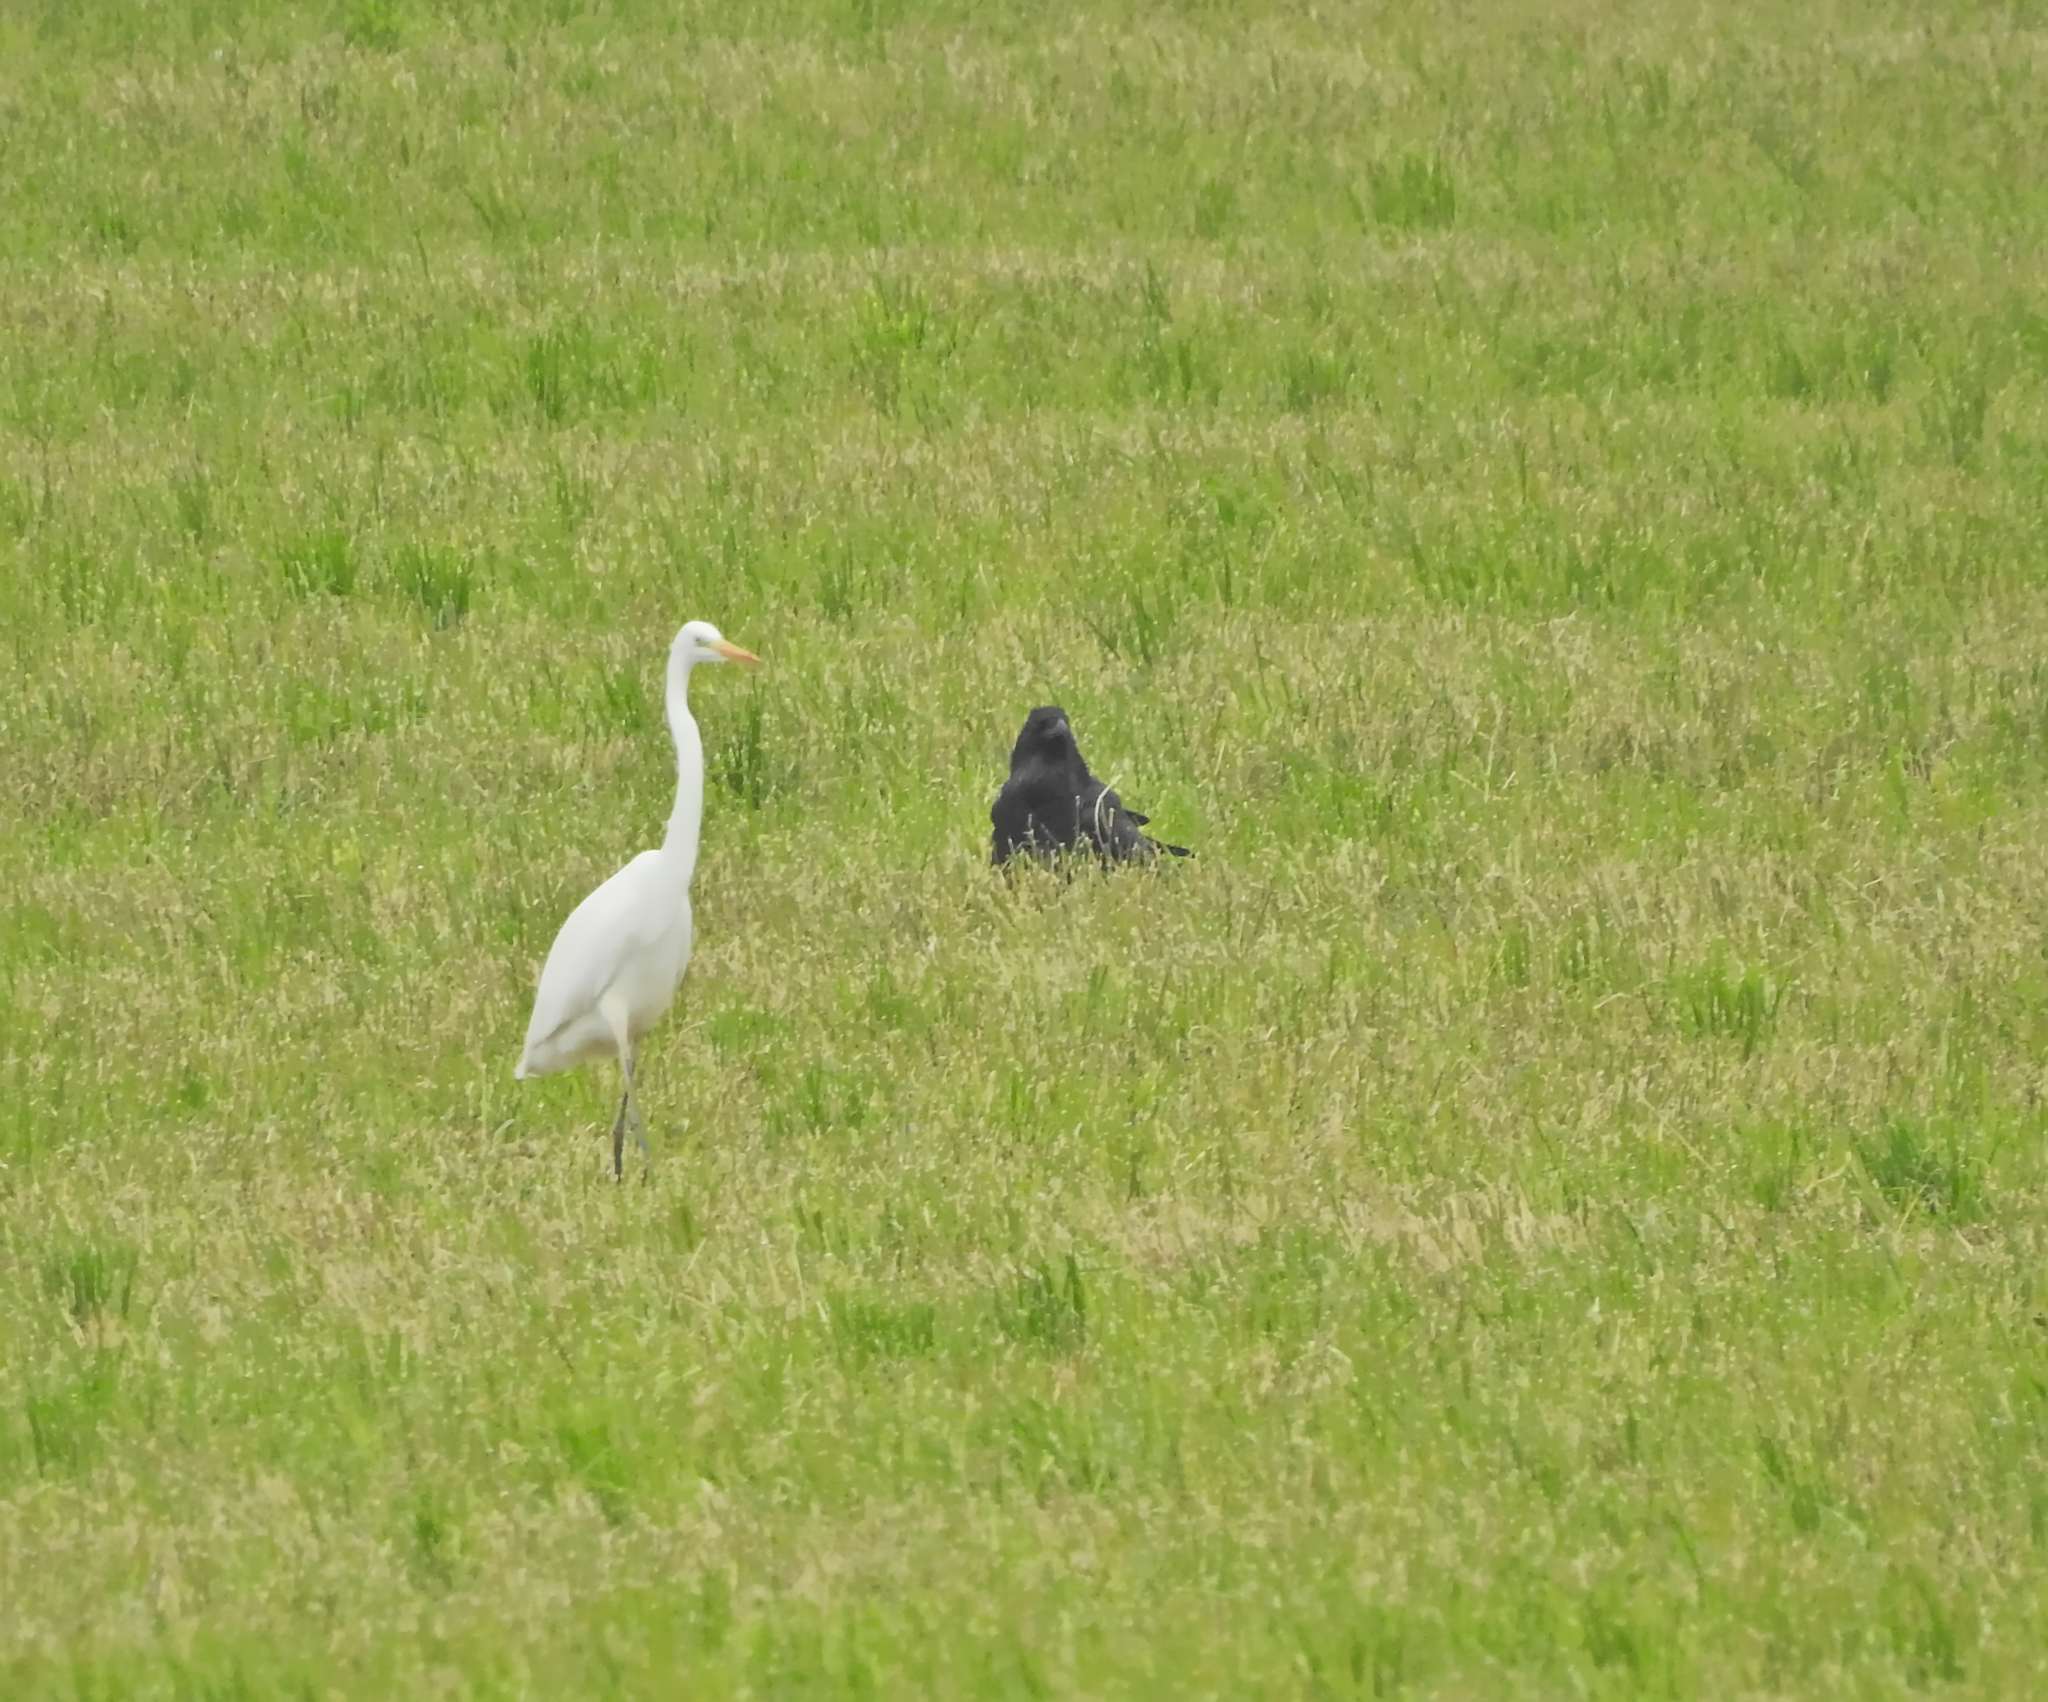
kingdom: Animalia
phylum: Chordata
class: Aves
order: Passeriformes
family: Corvidae
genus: Corvus
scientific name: Corvus corax
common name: Common raven
